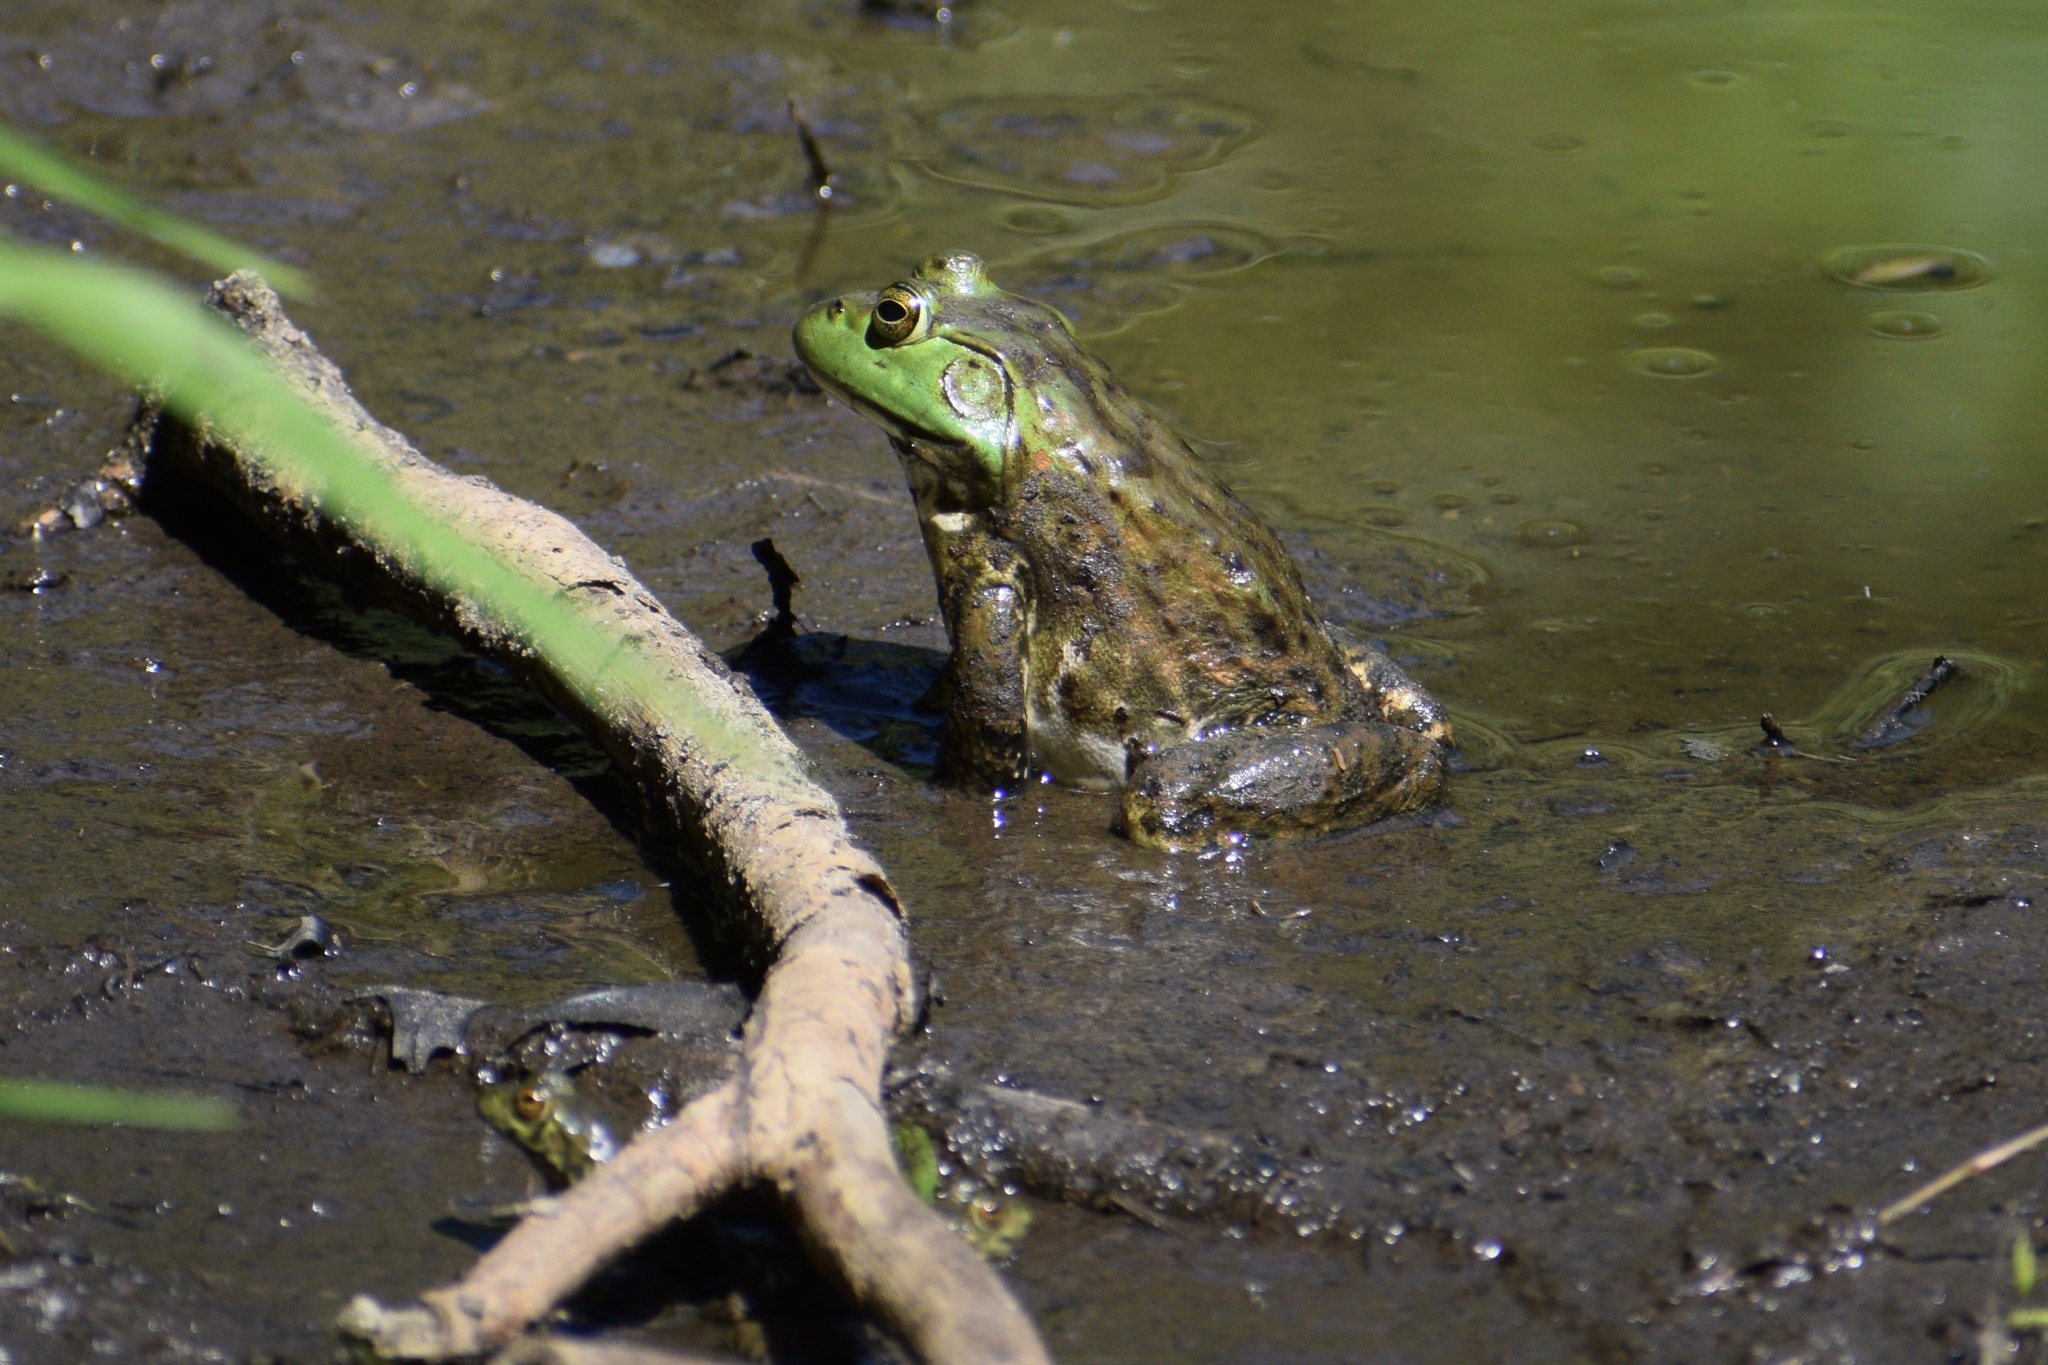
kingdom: Animalia
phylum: Chordata
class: Amphibia
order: Anura
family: Ranidae
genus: Lithobates
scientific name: Lithobates catesbeianus
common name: American bullfrog
